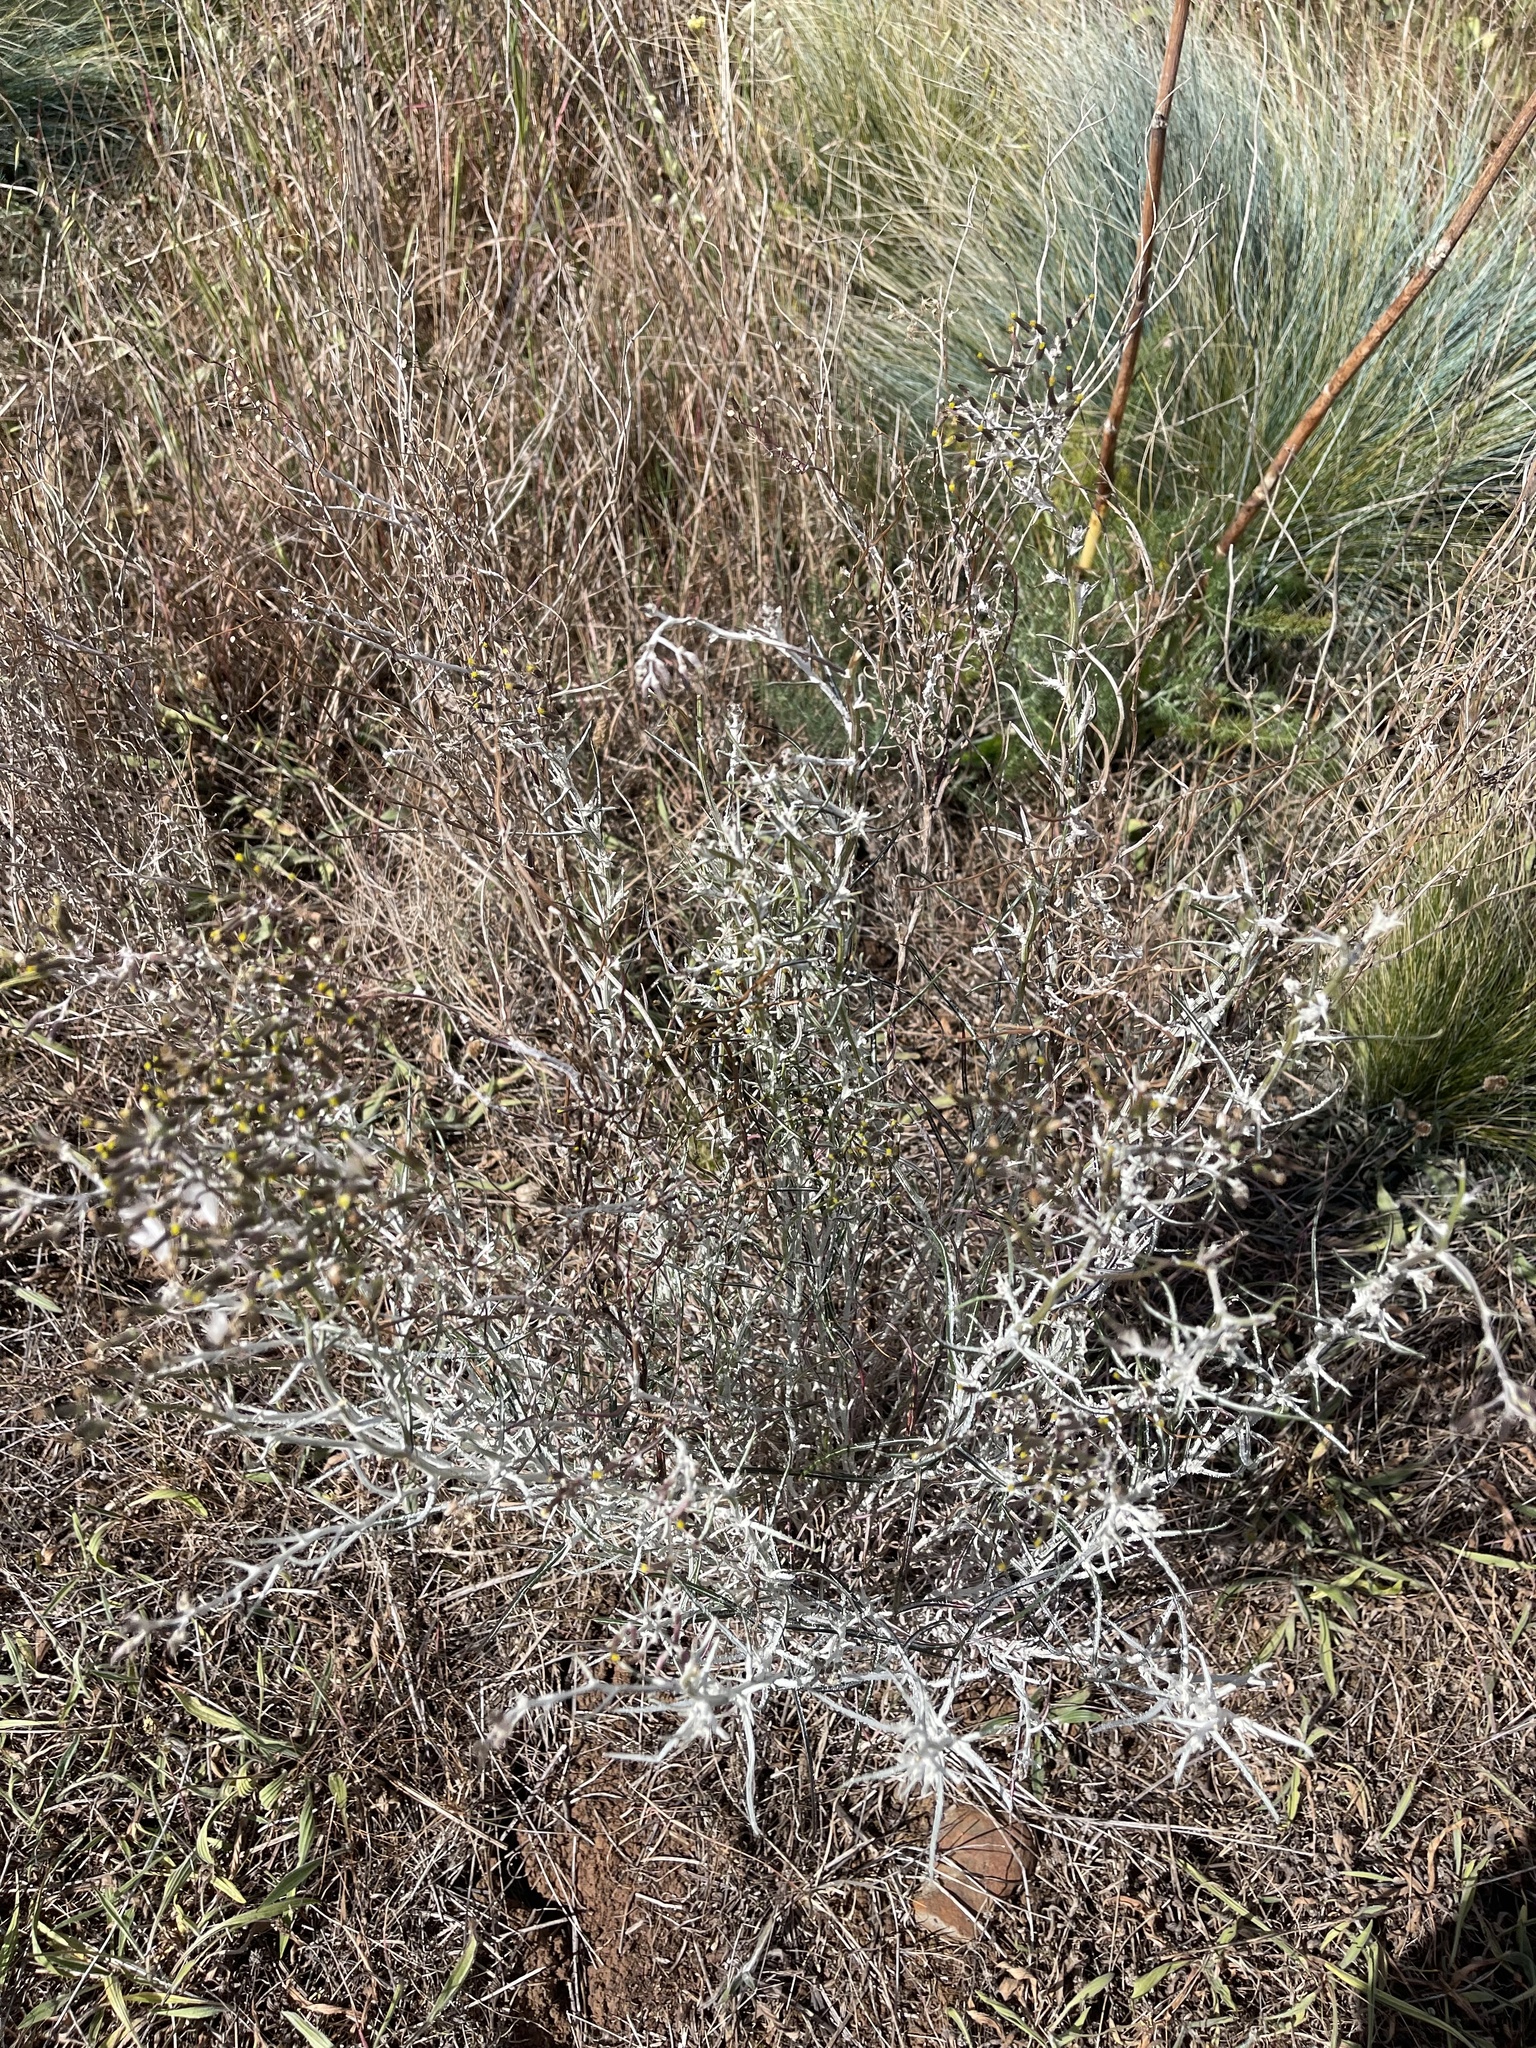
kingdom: Plantae
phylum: Tracheophyta
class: Magnoliopsida
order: Asterales
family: Asteraceae
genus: Senecio
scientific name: Senecio quadridentatus
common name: Cotton fireweed
